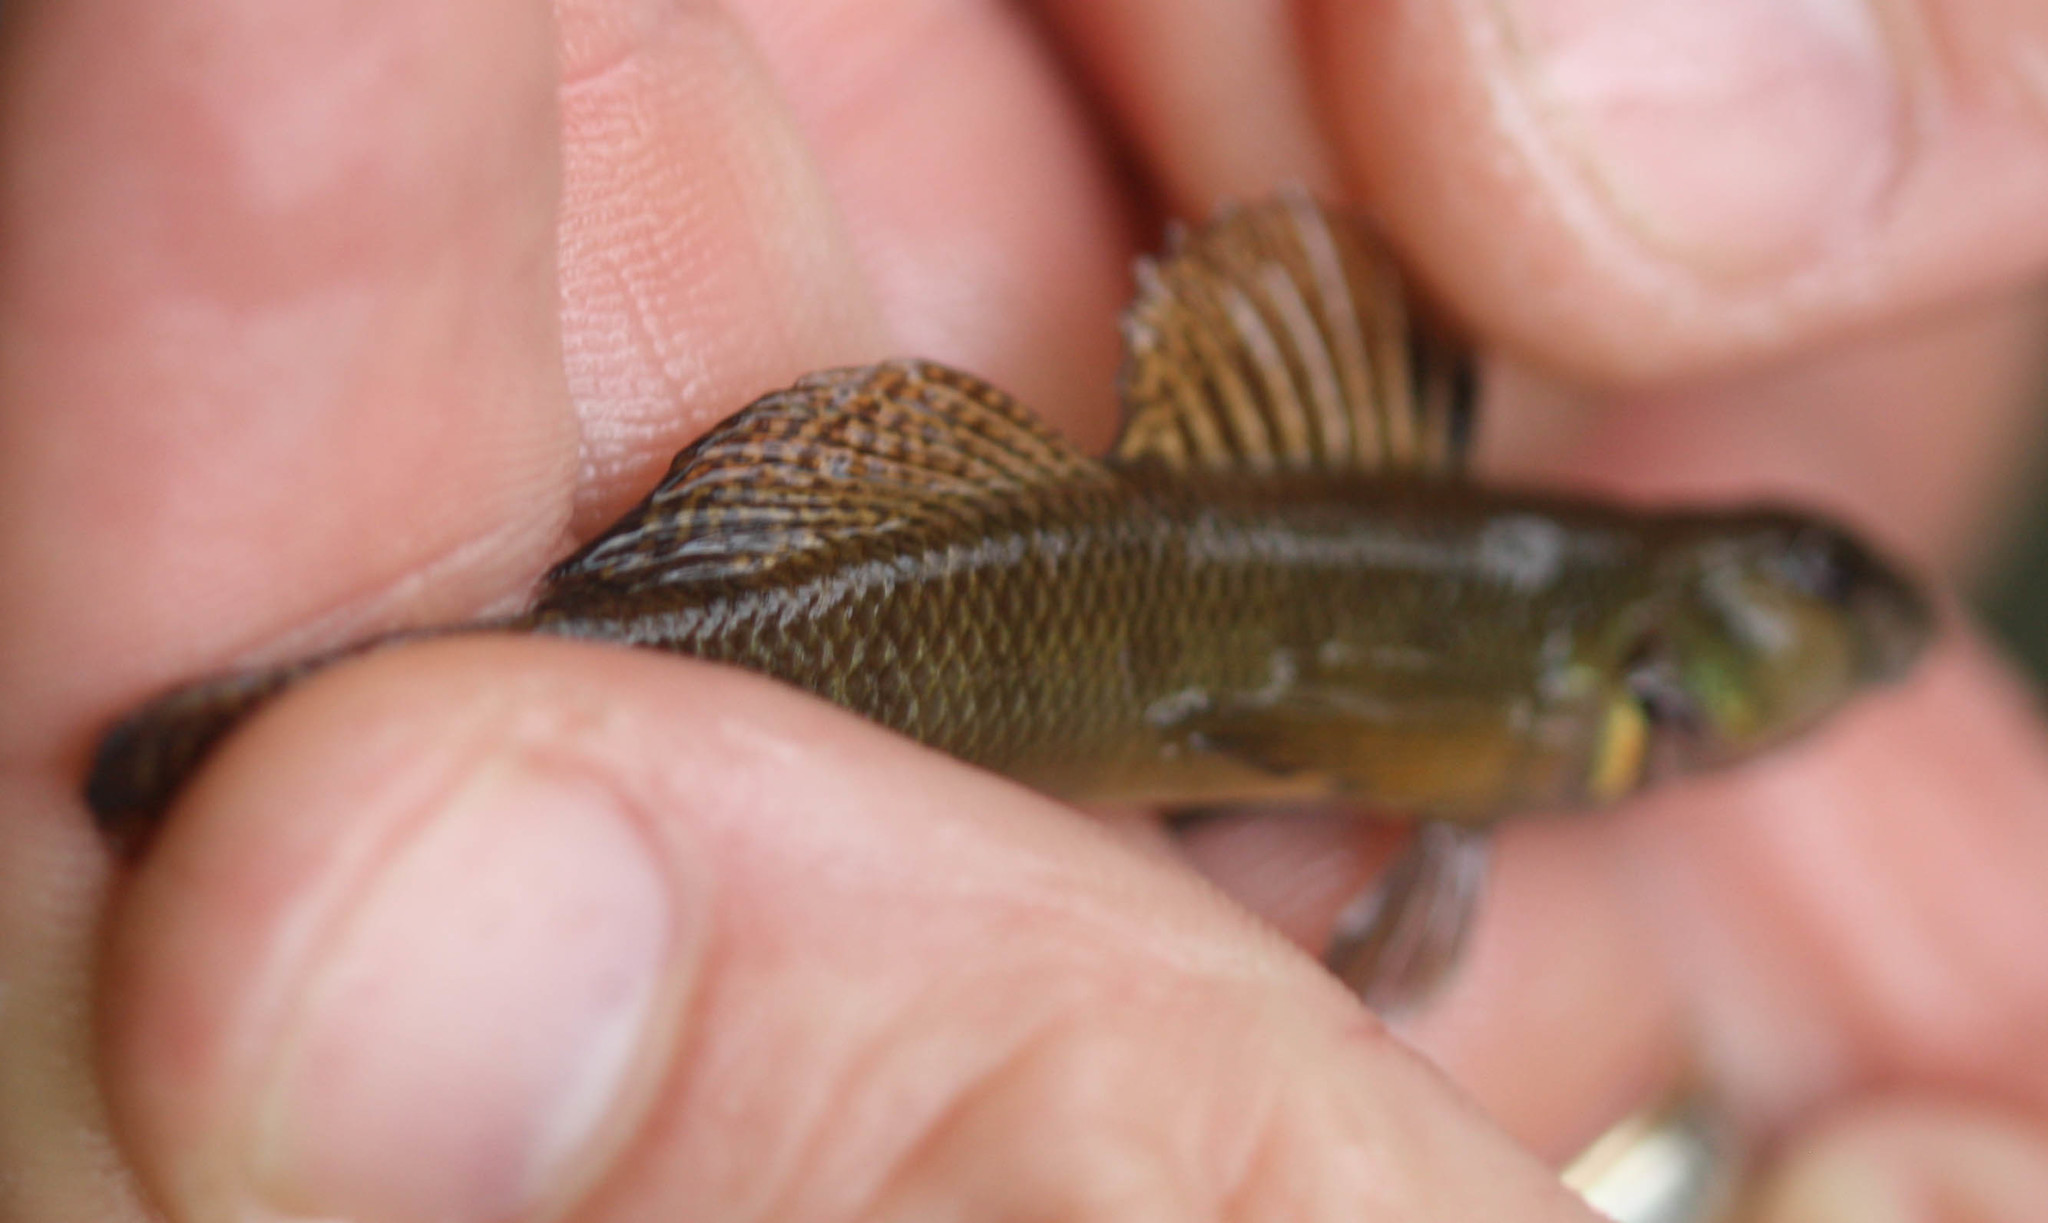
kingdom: Animalia
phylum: Chordata
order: Perciformes
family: Percidae
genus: Etheostoma
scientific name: Etheostoma olmstedi
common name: Tessellated darter
